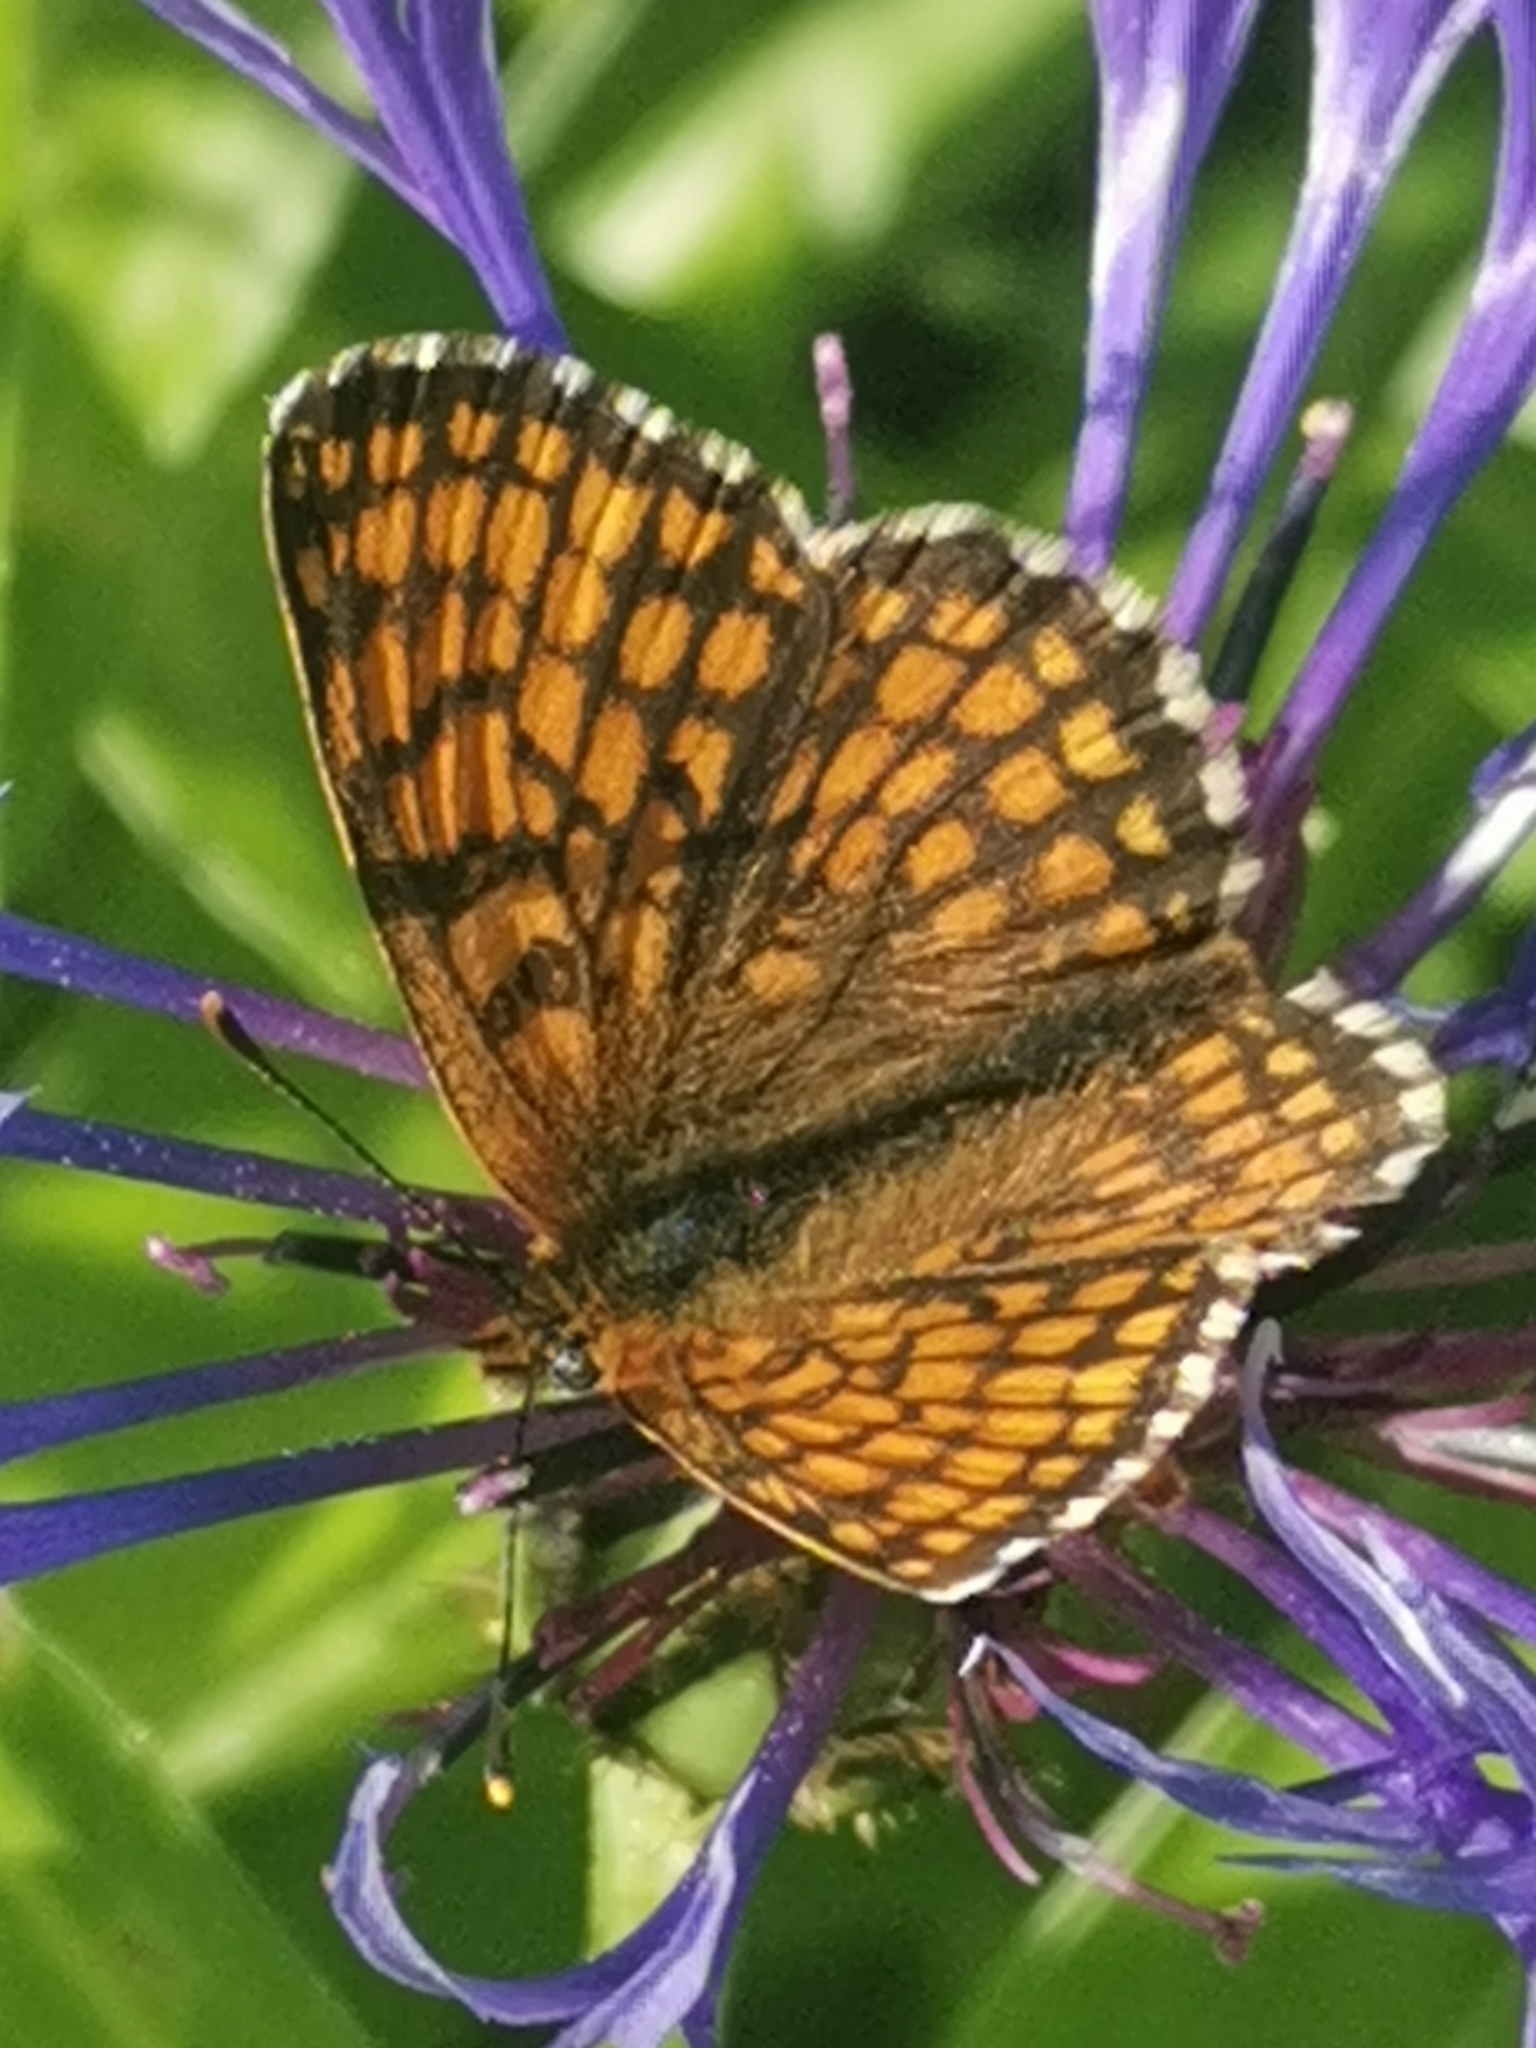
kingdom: Animalia
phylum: Arthropoda
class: Insecta
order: Lepidoptera
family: Nymphalidae
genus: Melitaea
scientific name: Melitaea athalia
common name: Heath fritillary
